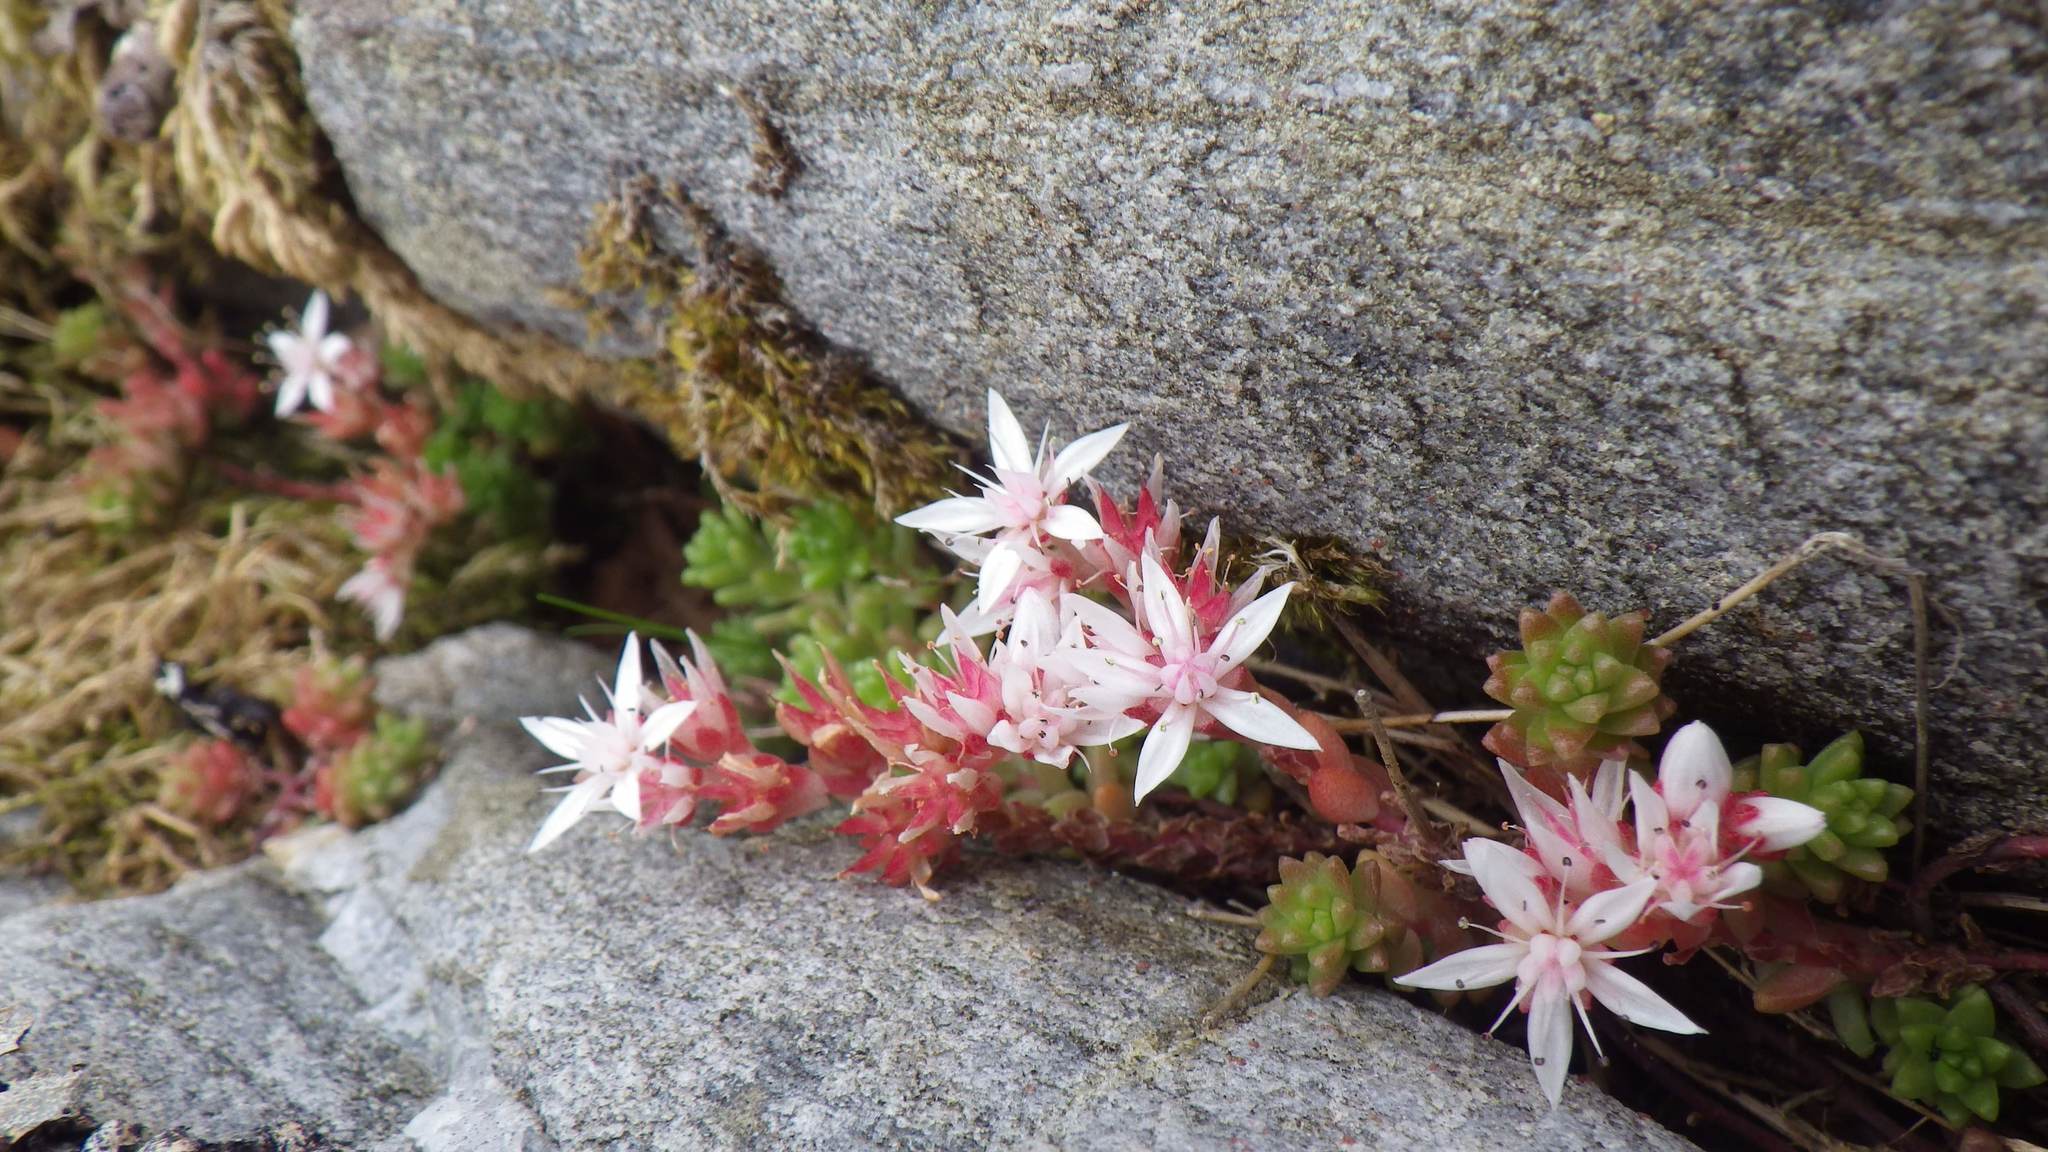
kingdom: Plantae
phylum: Tracheophyta
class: Magnoliopsida
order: Saxifragales
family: Crassulaceae
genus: Sedum
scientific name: Sedum anglicum
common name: English stonecrop
